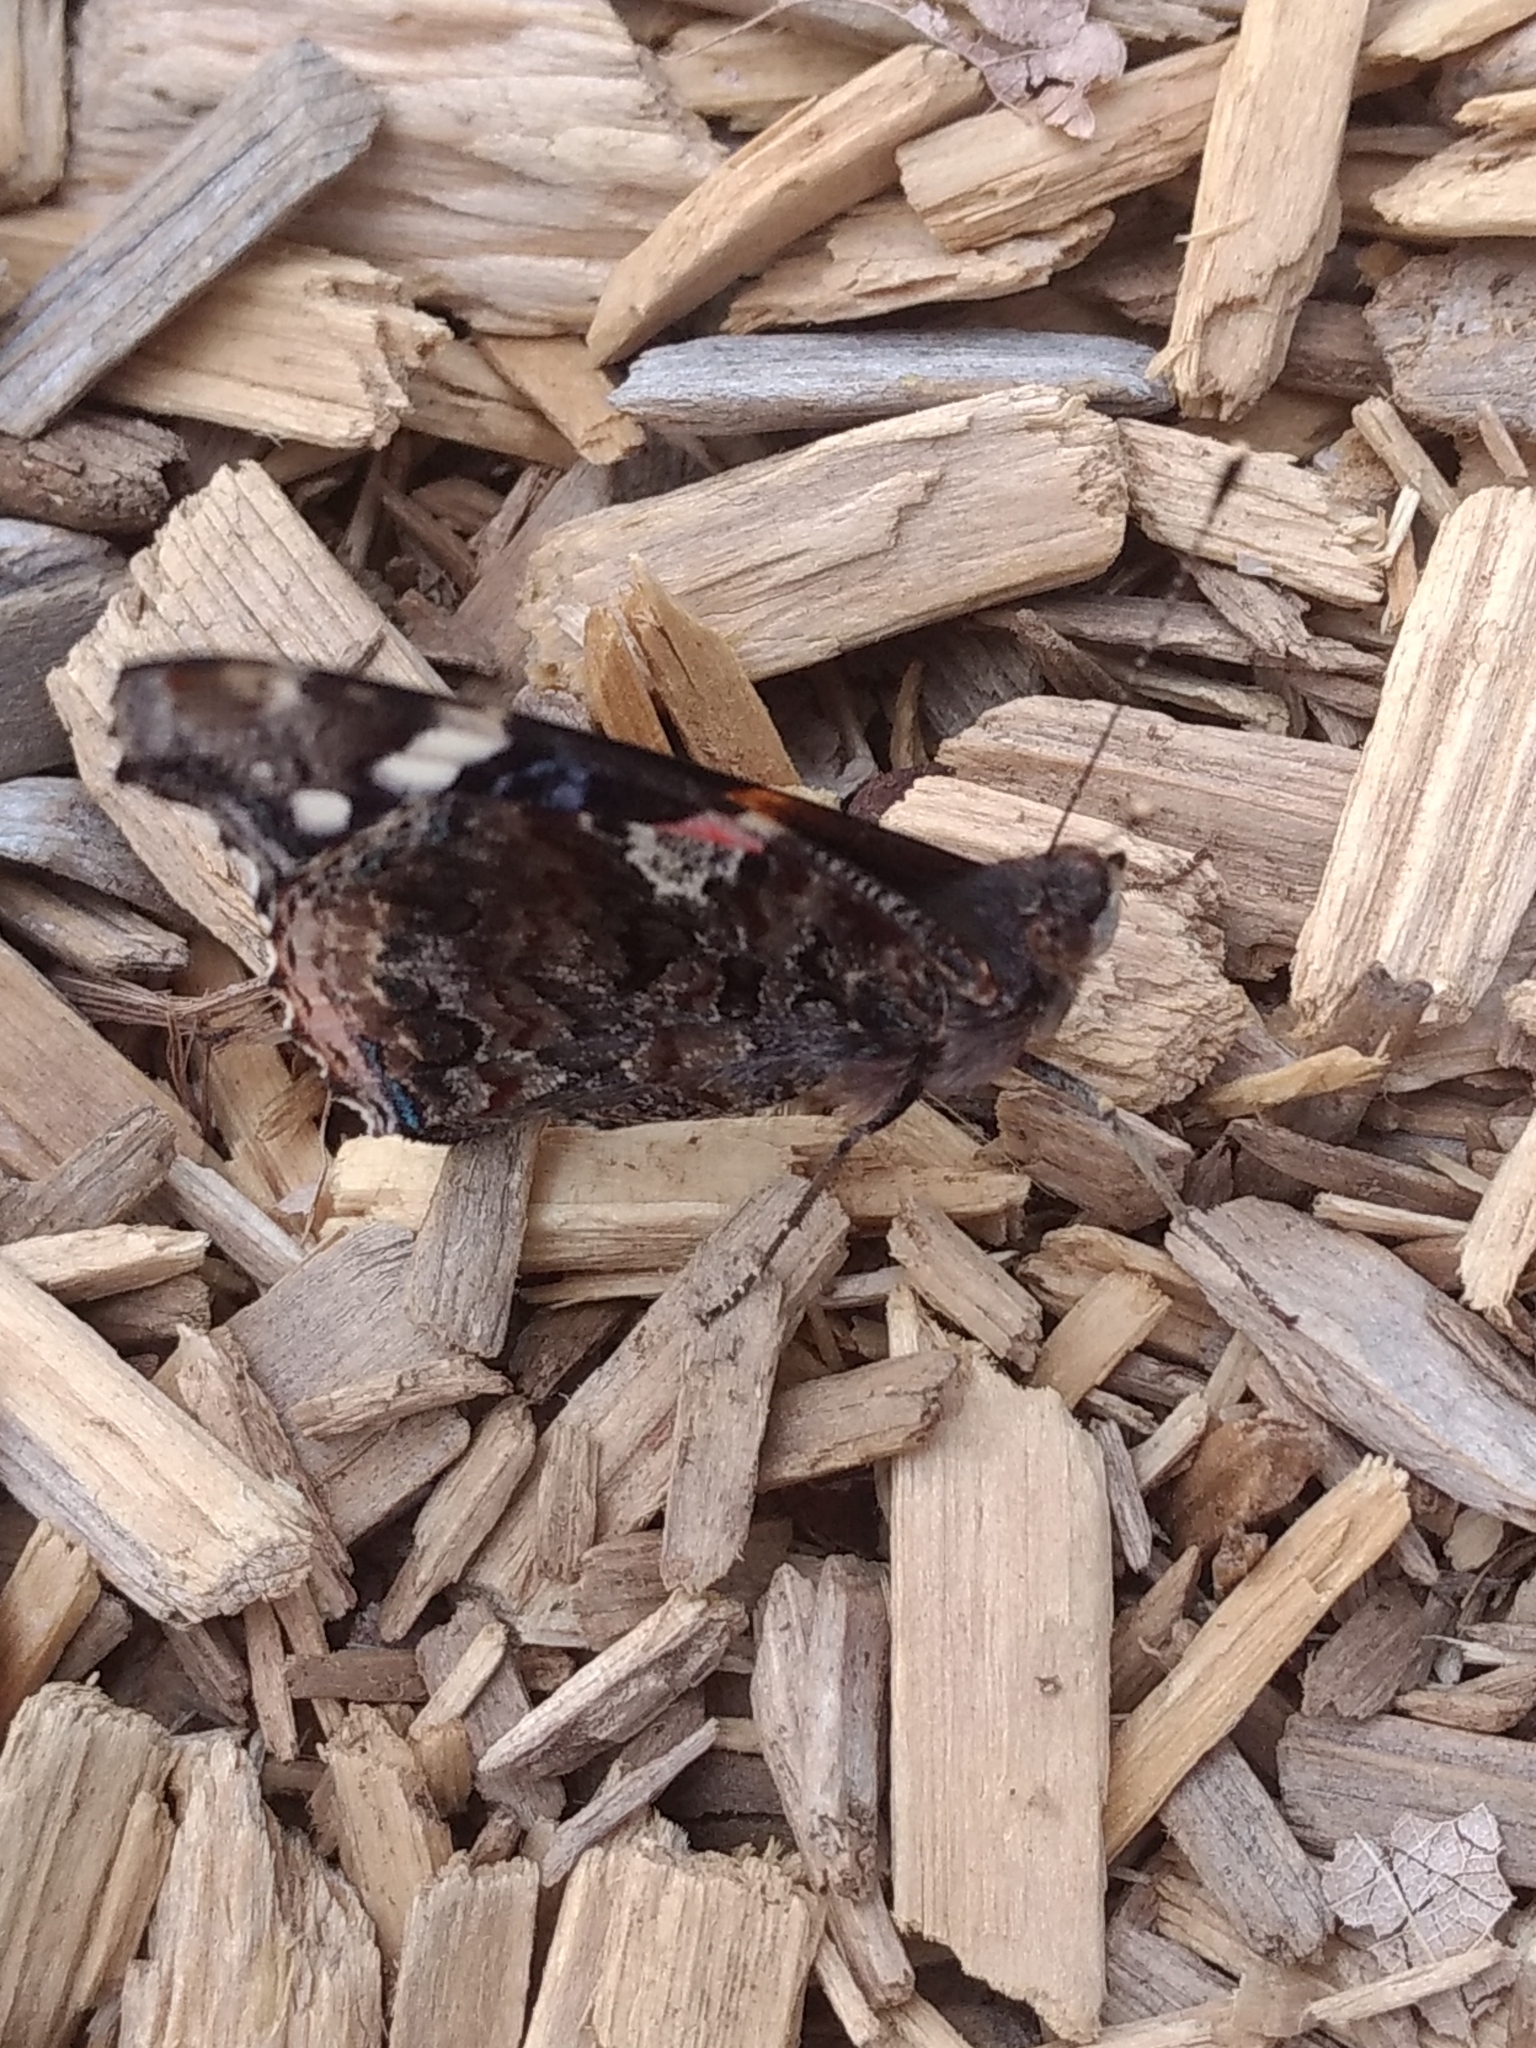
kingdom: Animalia
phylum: Arthropoda
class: Insecta
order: Lepidoptera
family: Nymphalidae
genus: Vanessa
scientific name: Vanessa atalanta
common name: Red admiral
